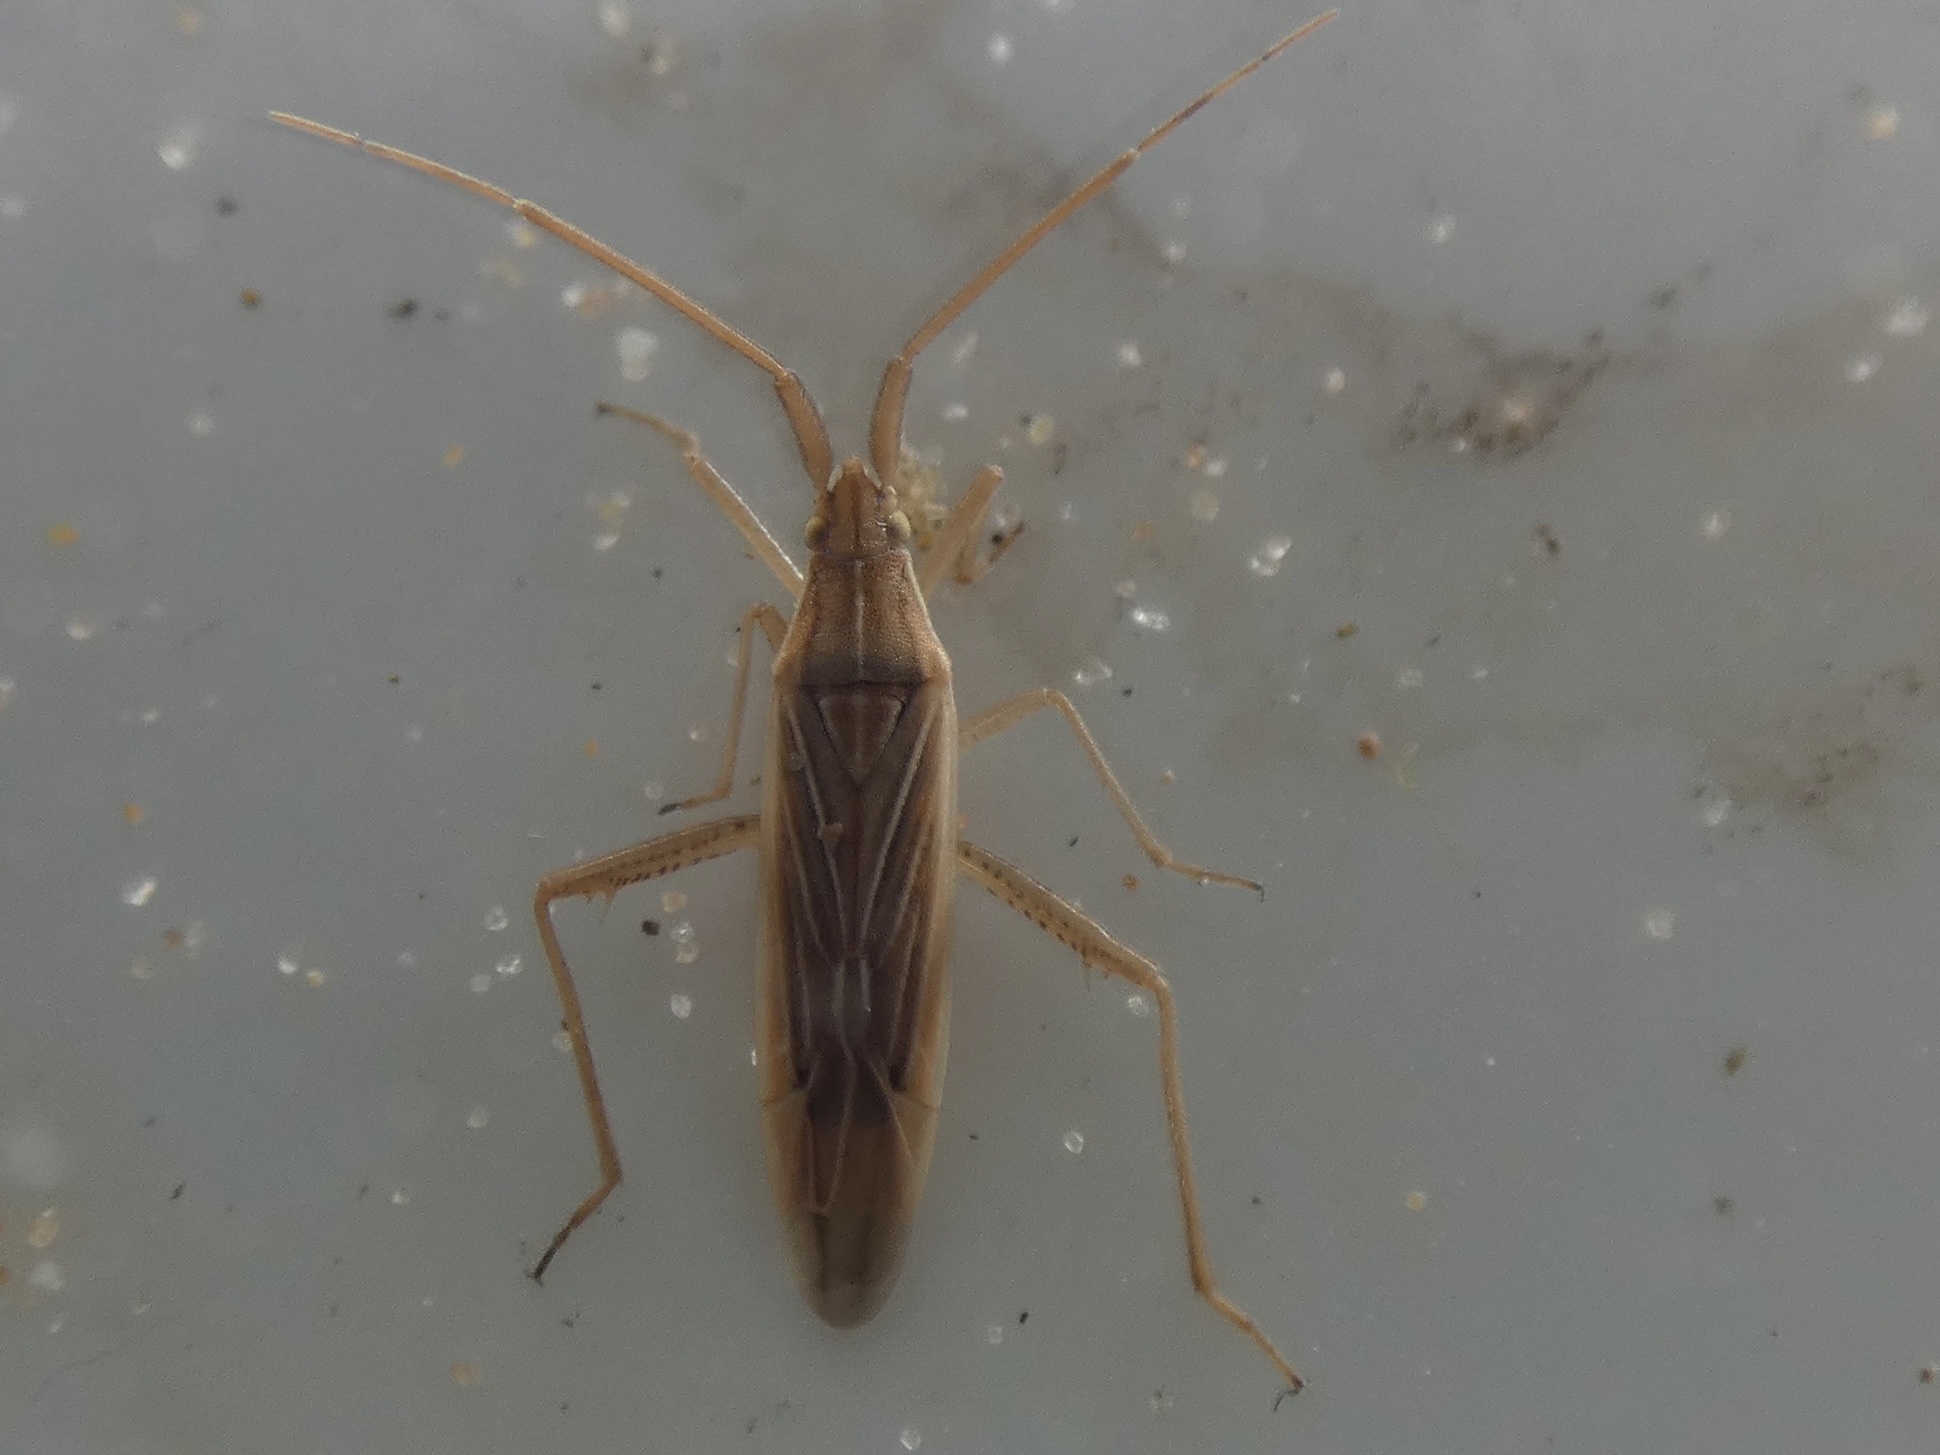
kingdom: Animalia
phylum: Arthropoda
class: Insecta
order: Hemiptera
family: Miridae
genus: Stenodema
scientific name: Stenodema calcarata
